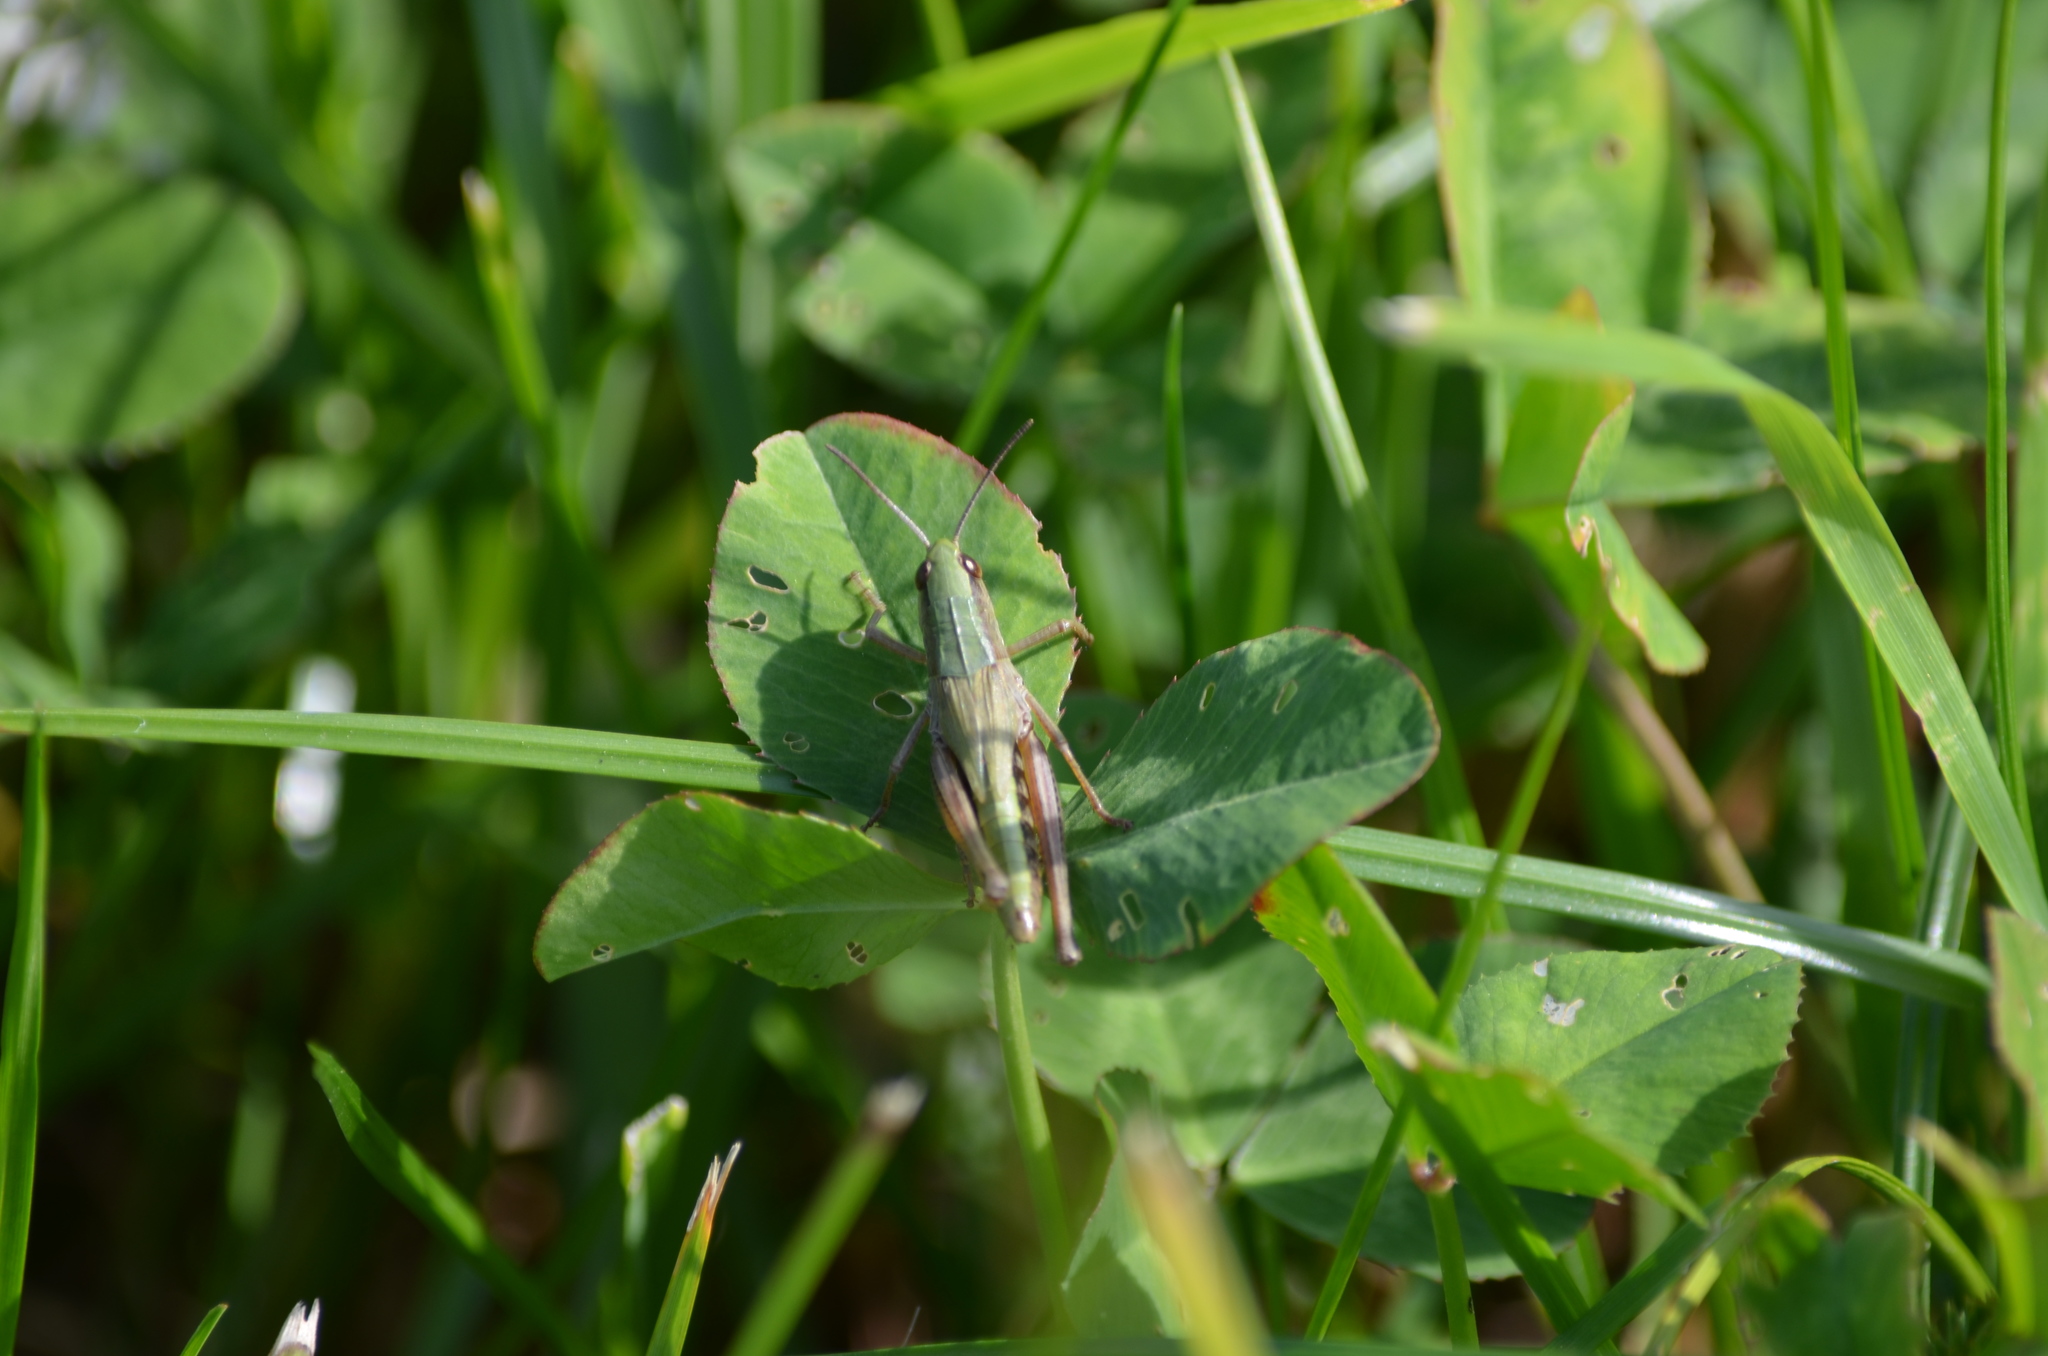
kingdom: Animalia
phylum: Arthropoda
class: Insecta
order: Orthoptera
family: Acrididae
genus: Pseudochorthippus
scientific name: Pseudochorthippus parallelus
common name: Meadow grasshopper
